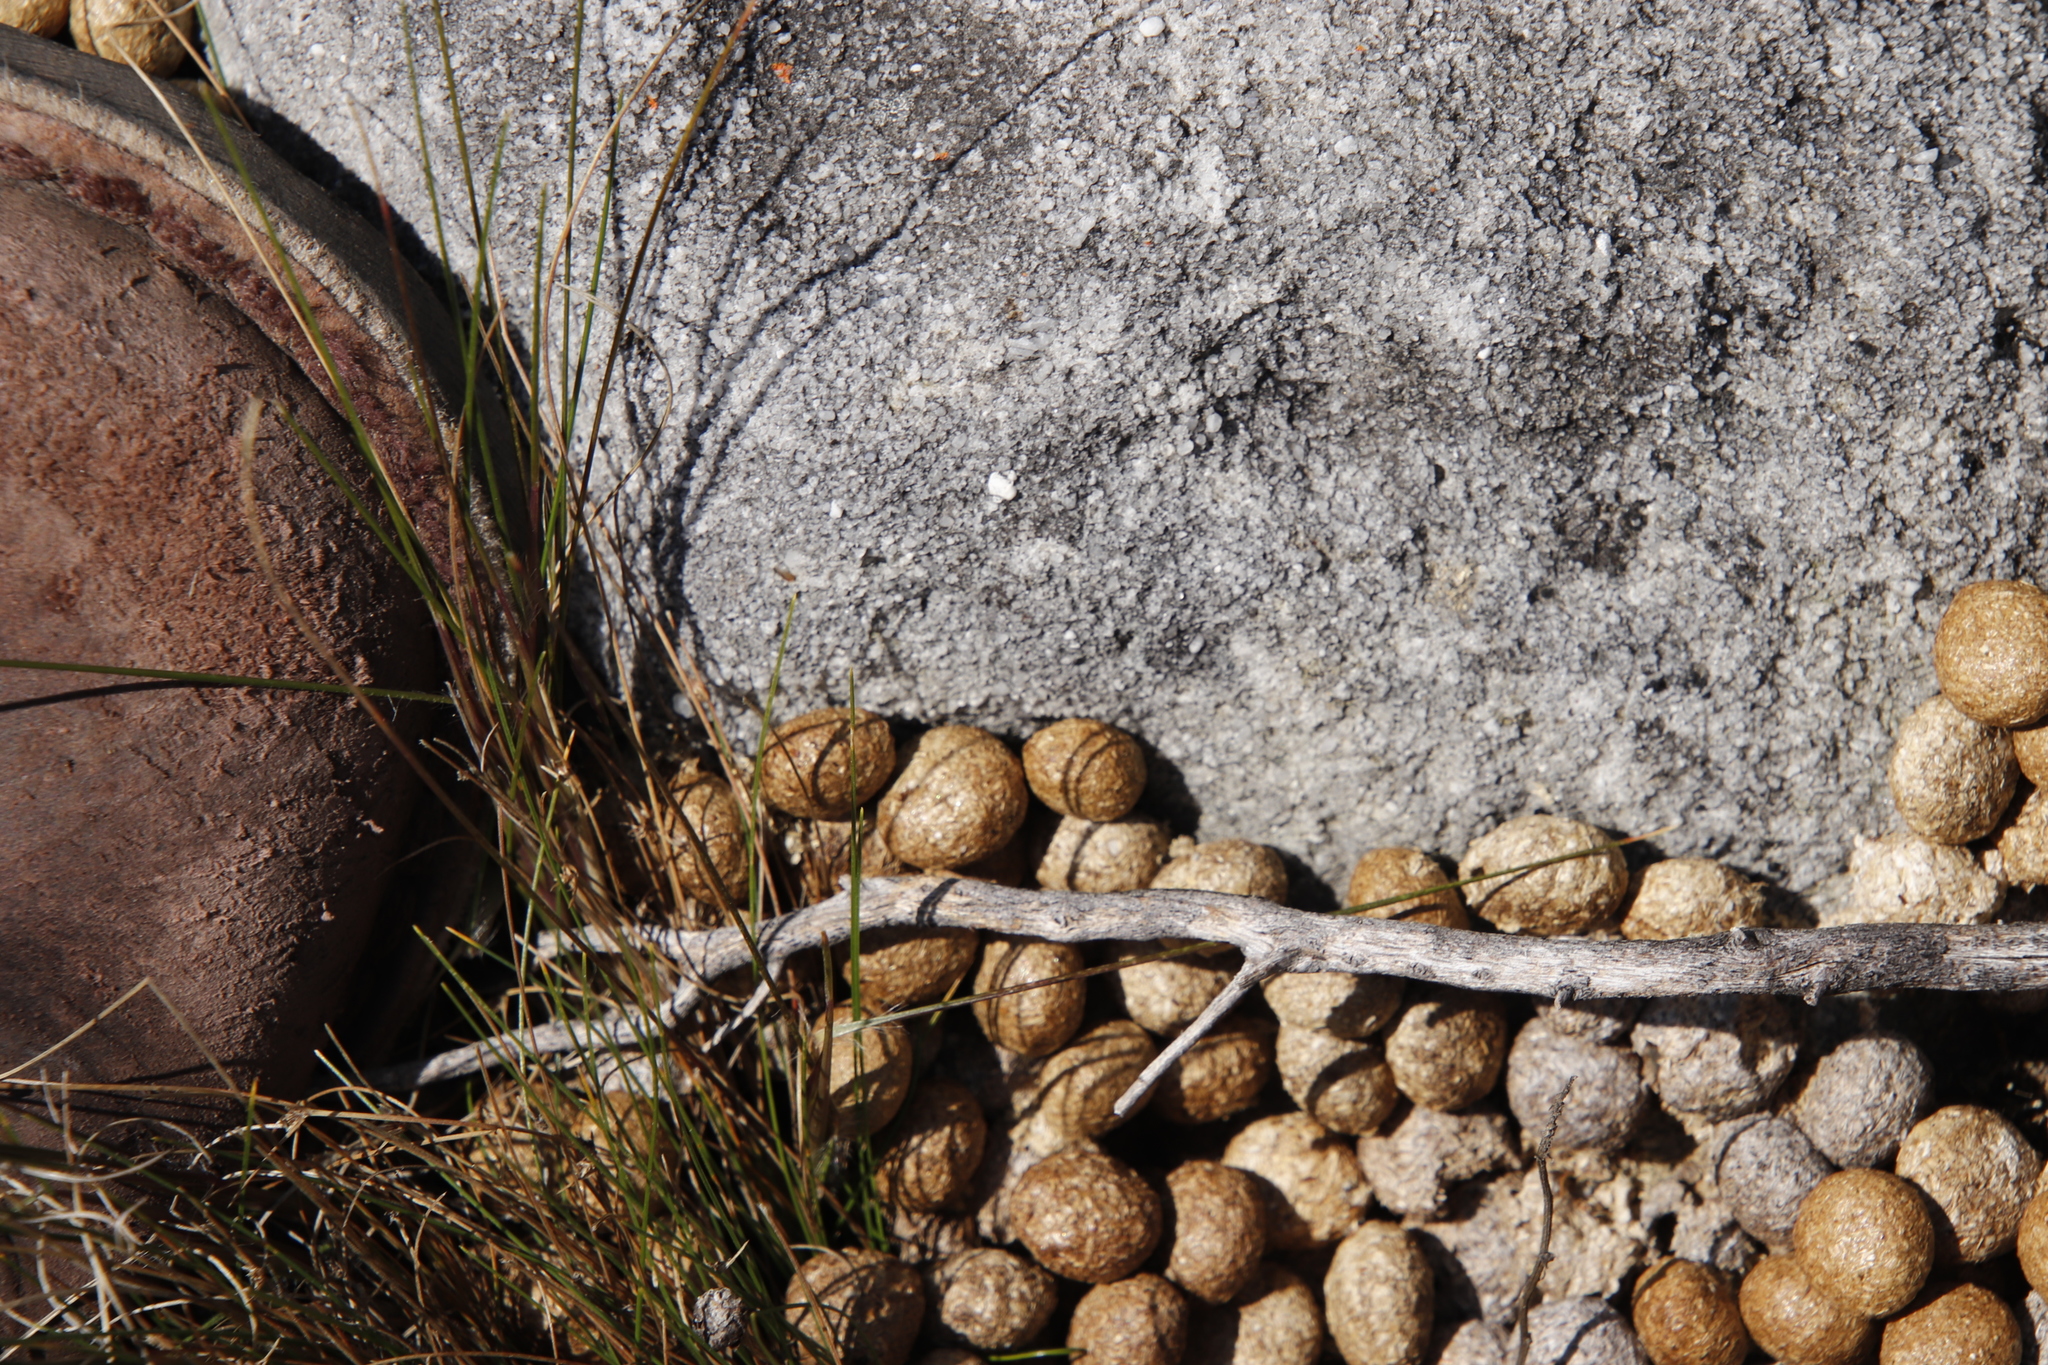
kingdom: Animalia
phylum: Chordata
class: Mammalia
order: Lagomorpha
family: Leporidae
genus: Pronolagus
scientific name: Pronolagus saundersiae
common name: Hewitt's red rock hare
